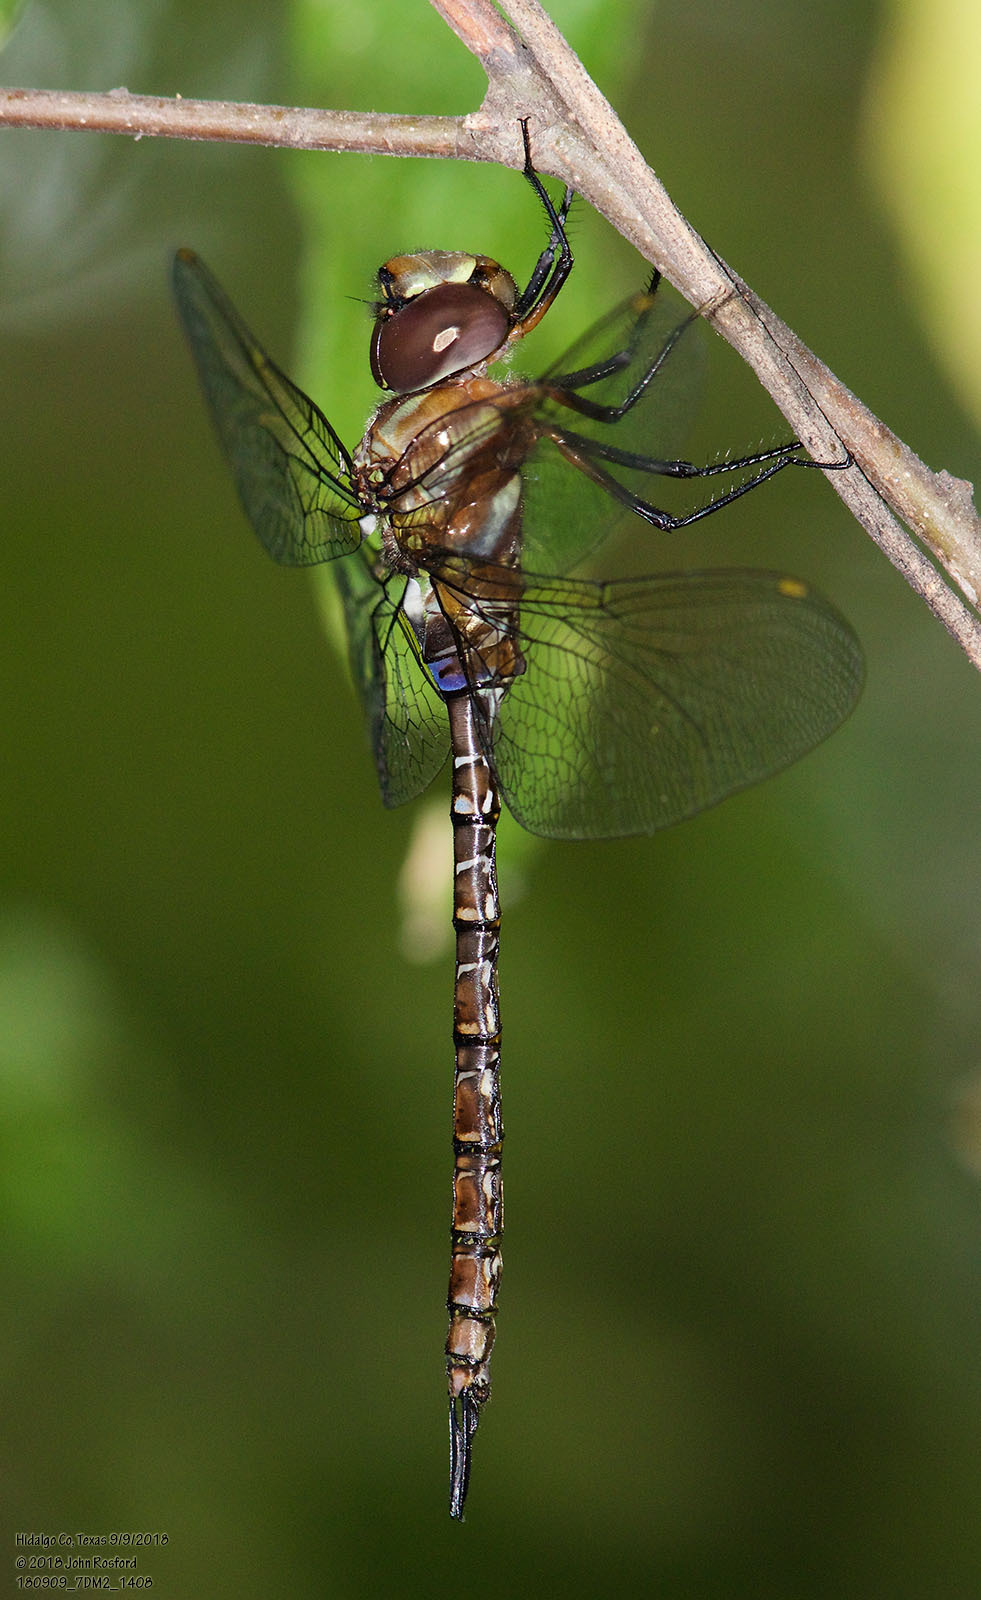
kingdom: Animalia
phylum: Arthropoda
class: Insecta
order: Odonata
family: Aeshnidae
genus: Rhionaeschna
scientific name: Rhionaeschna psilus
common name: Turquoise-tipped darner
